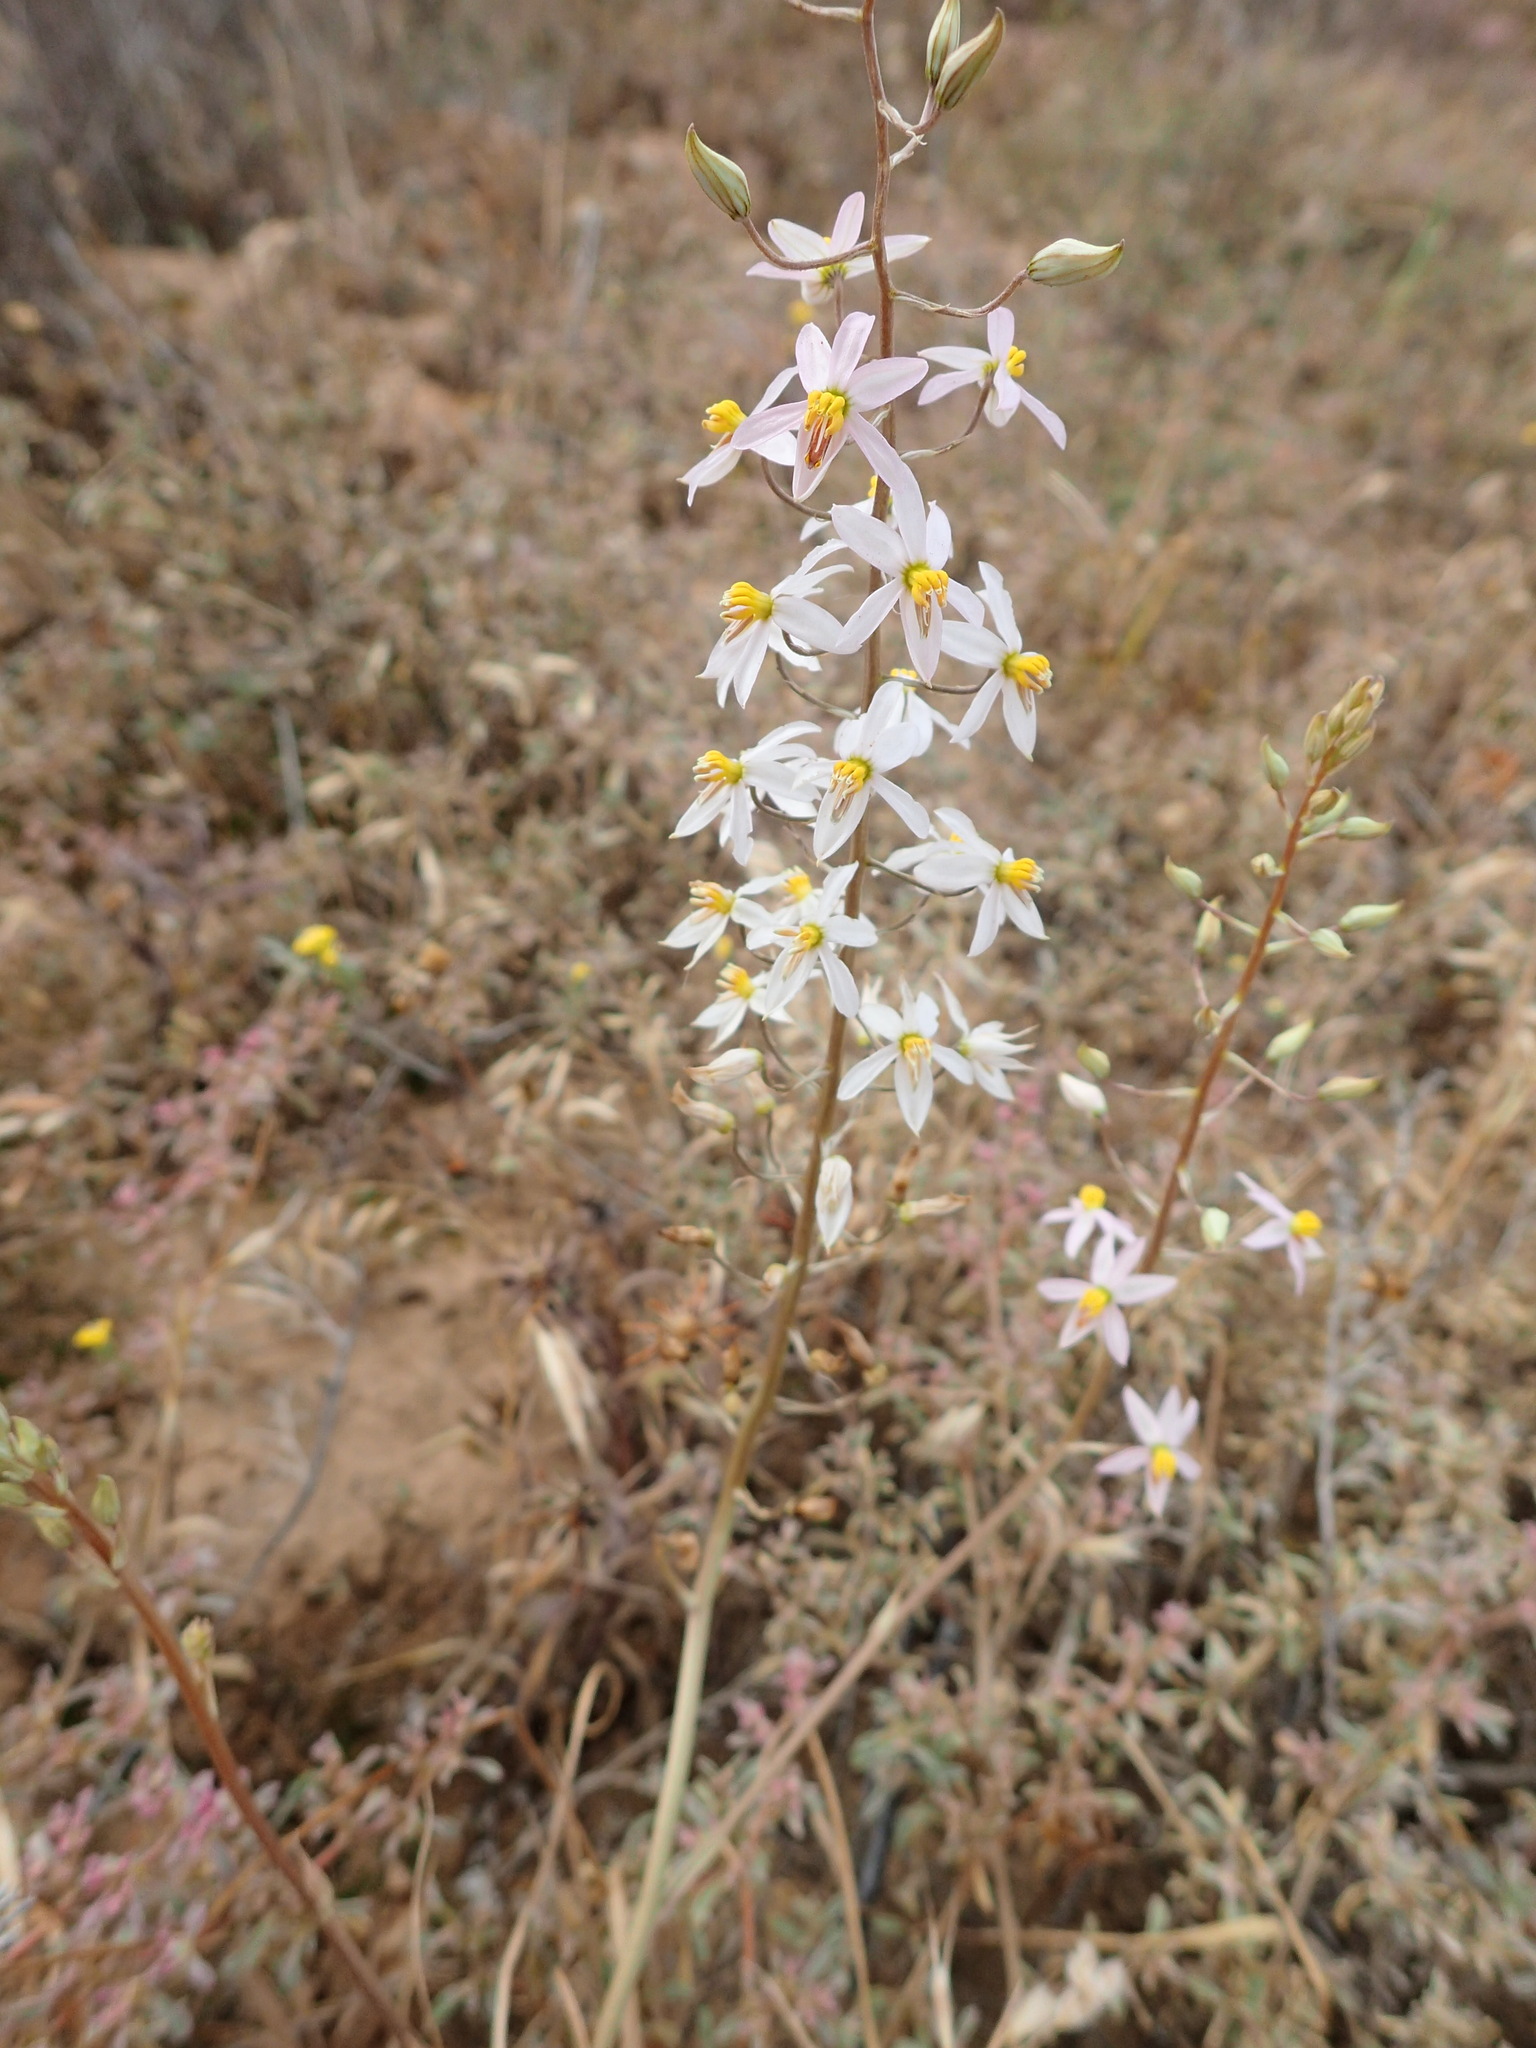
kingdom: Plantae
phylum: Tracheophyta
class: Liliopsida
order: Asparagales
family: Tecophilaeaceae
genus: Cyanella
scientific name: Cyanella orchidiformis
